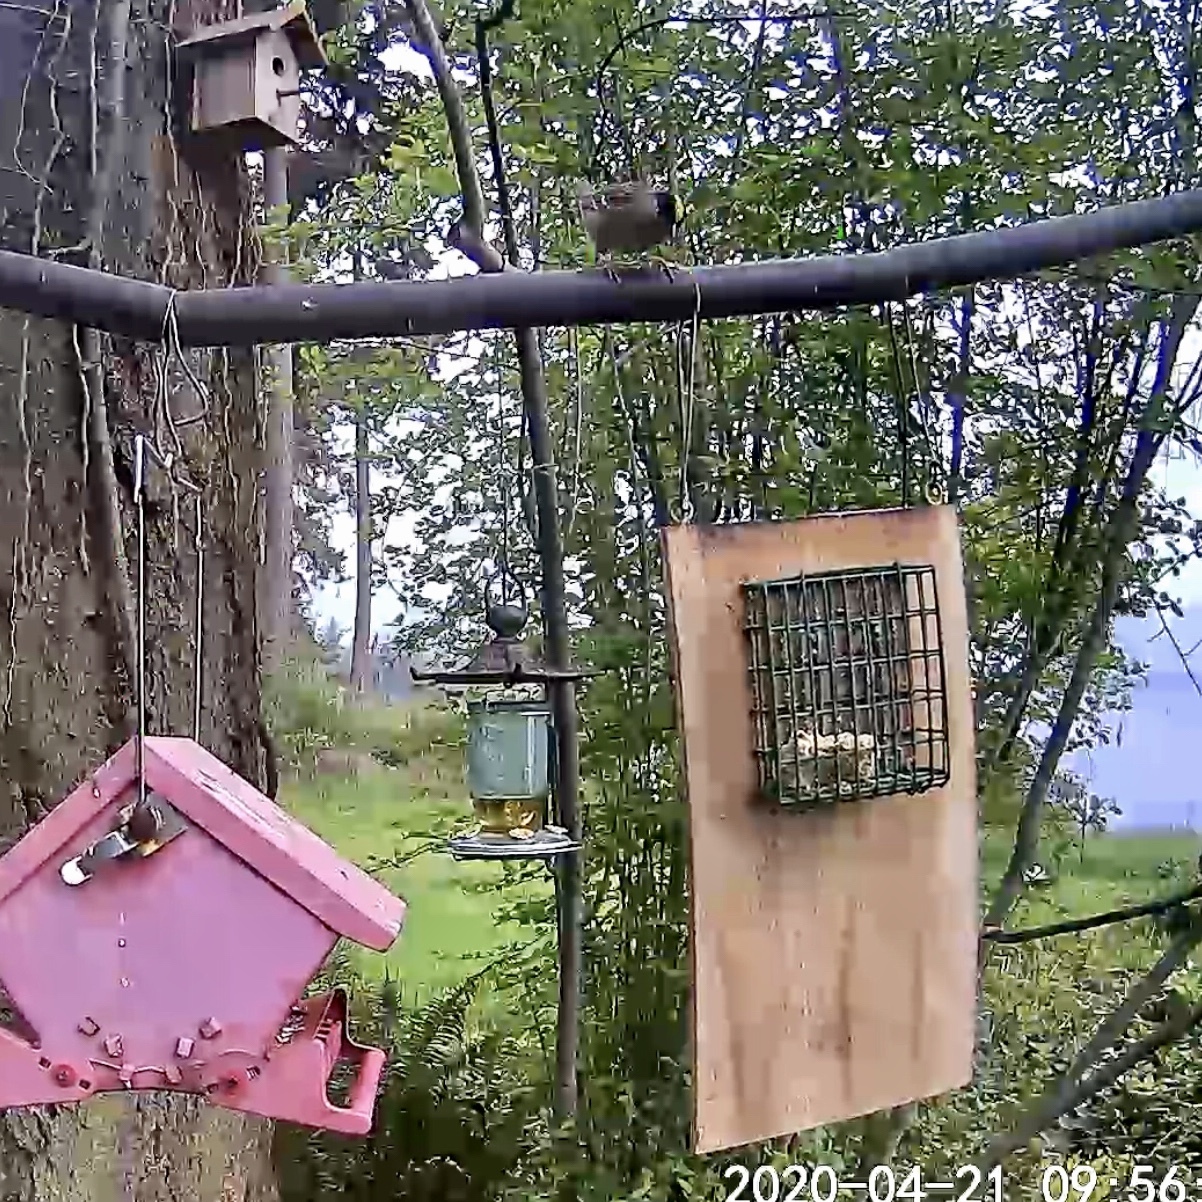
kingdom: Animalia
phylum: Chordata
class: Aves
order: Passeriformes
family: Passerellidae
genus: Zonotrichia
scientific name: Zonotrichia atricapilla
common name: Golden-crowned sparrow
